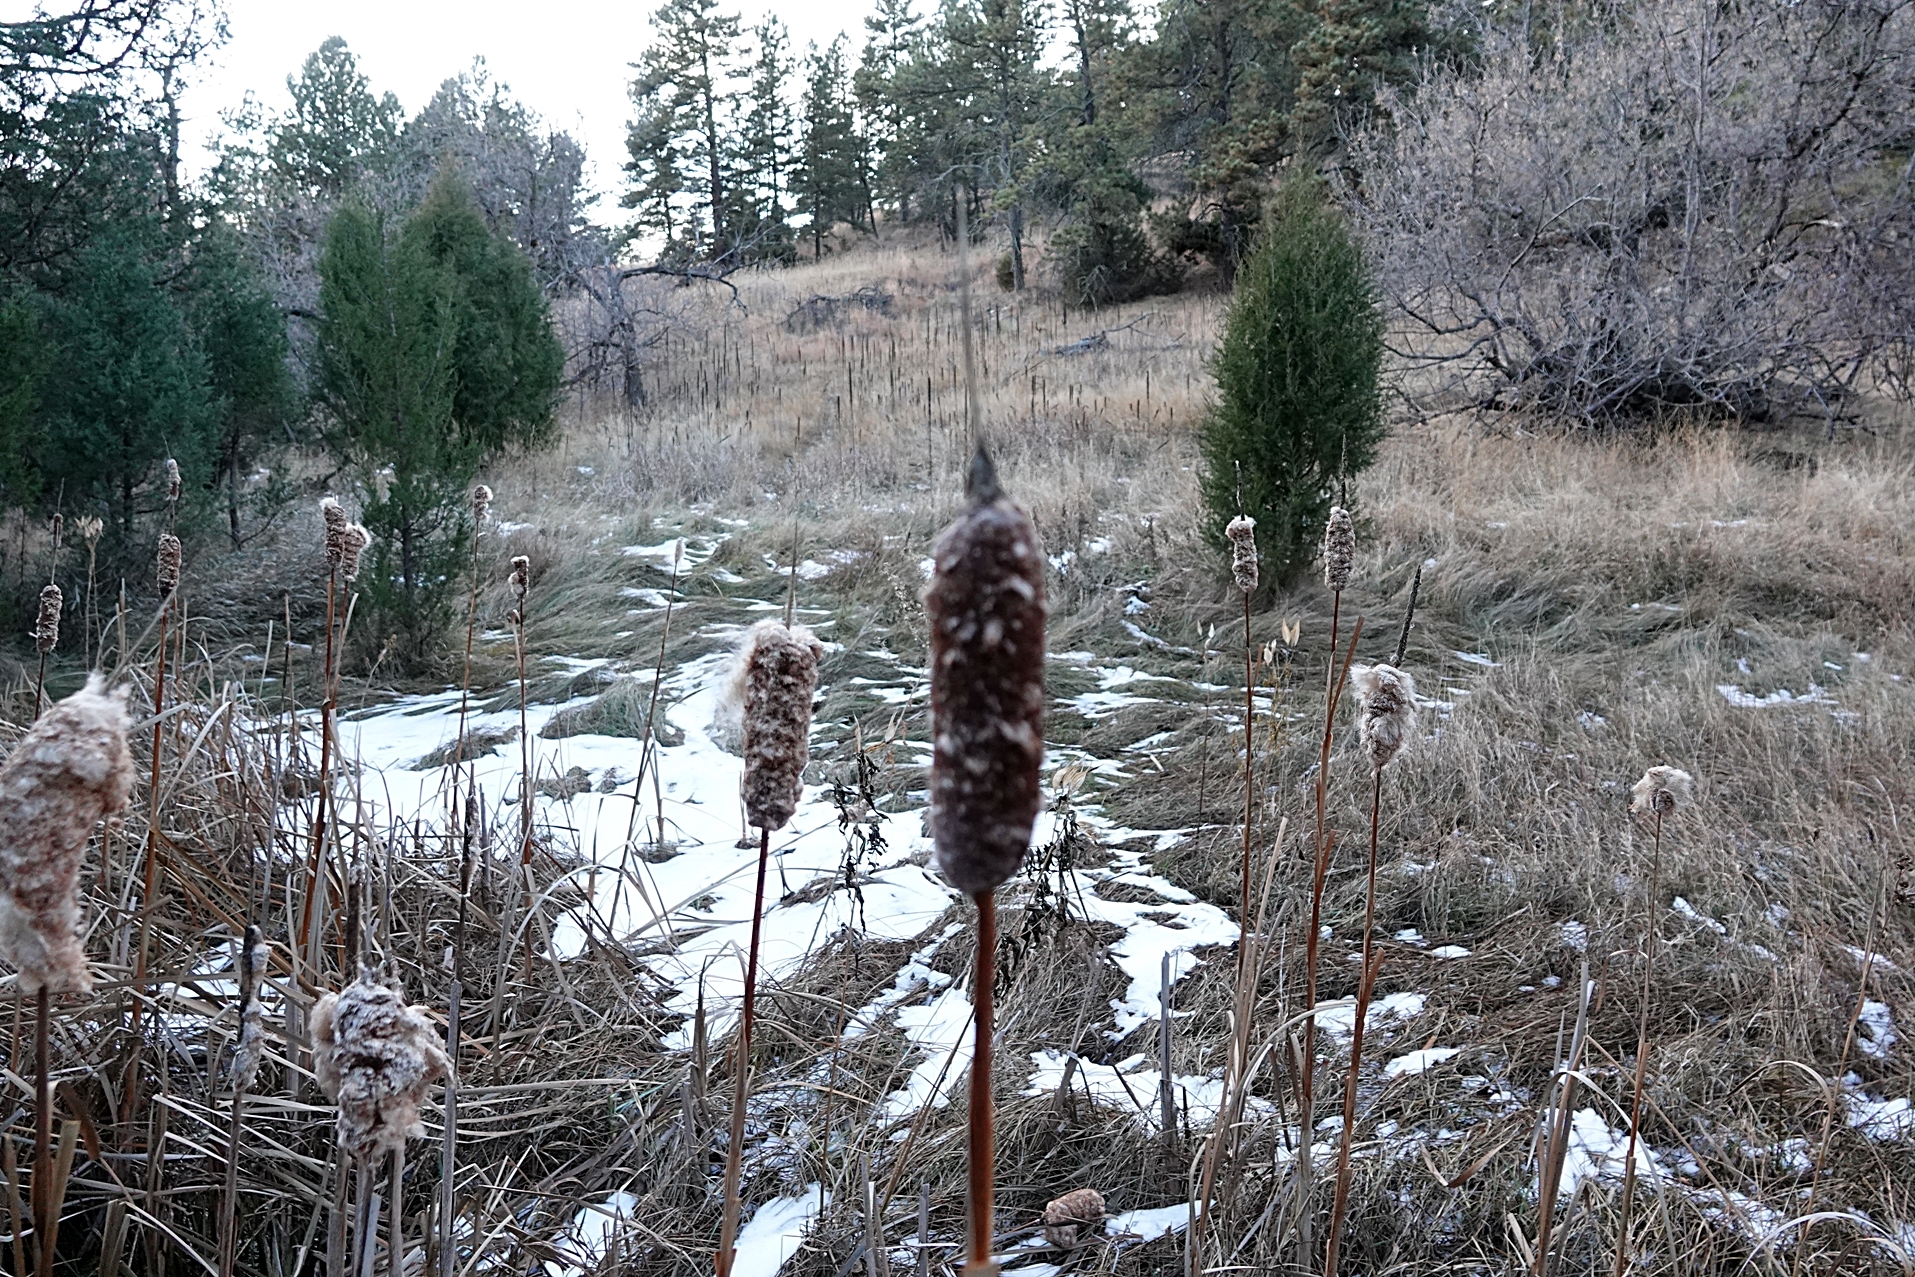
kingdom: Plantae
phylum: Tracheophyta
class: Liliopsida
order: Poales
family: Typhaceae
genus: Typha
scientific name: Typha latifolia
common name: Broadleaf cattail
